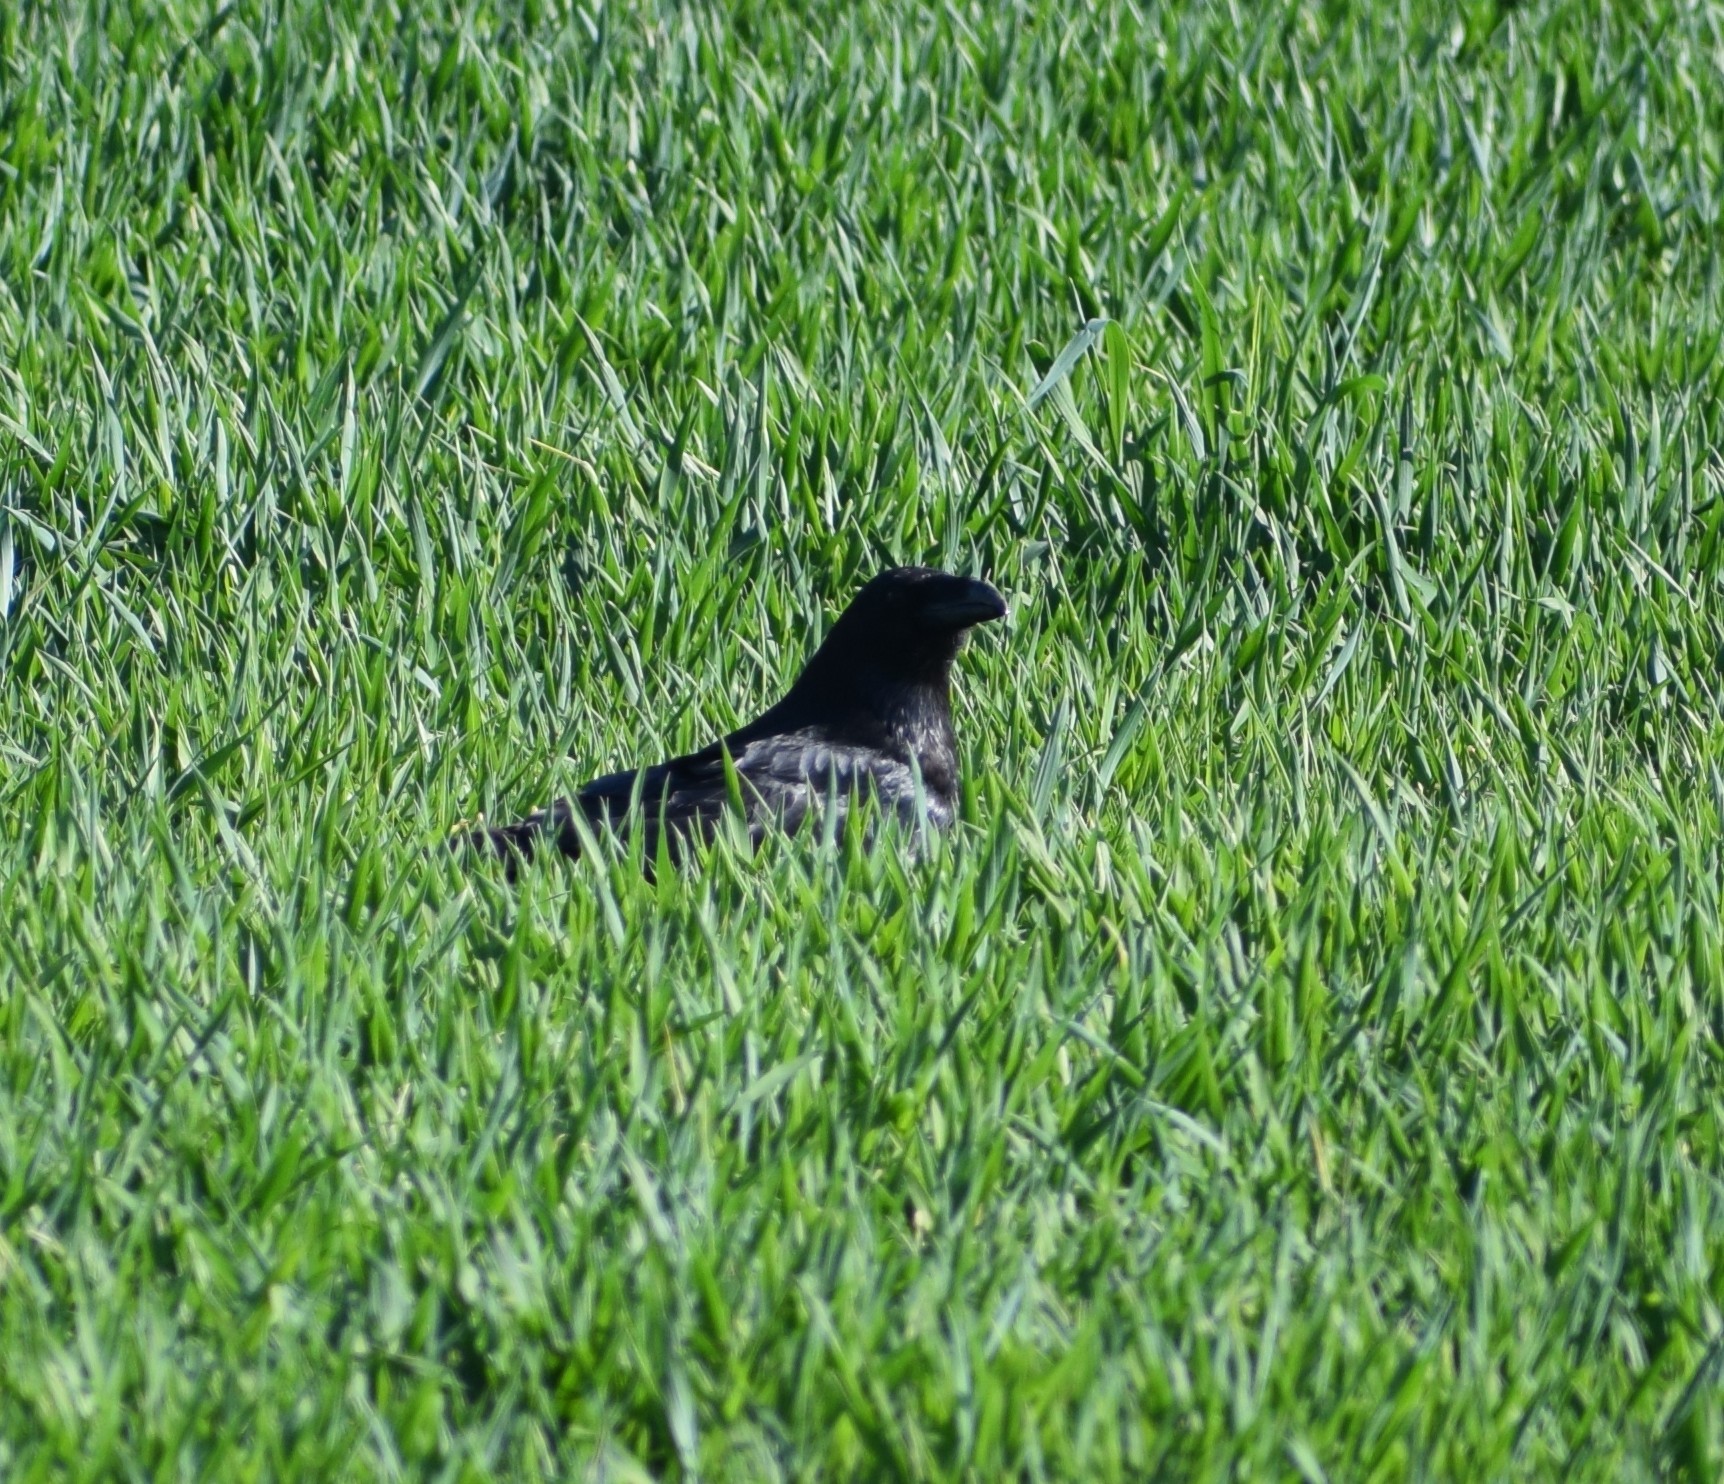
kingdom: Animalia
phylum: Chordata
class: Aves
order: Passeriformes
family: Corvidae
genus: Corvus
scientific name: Corvus corax
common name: Common raven
